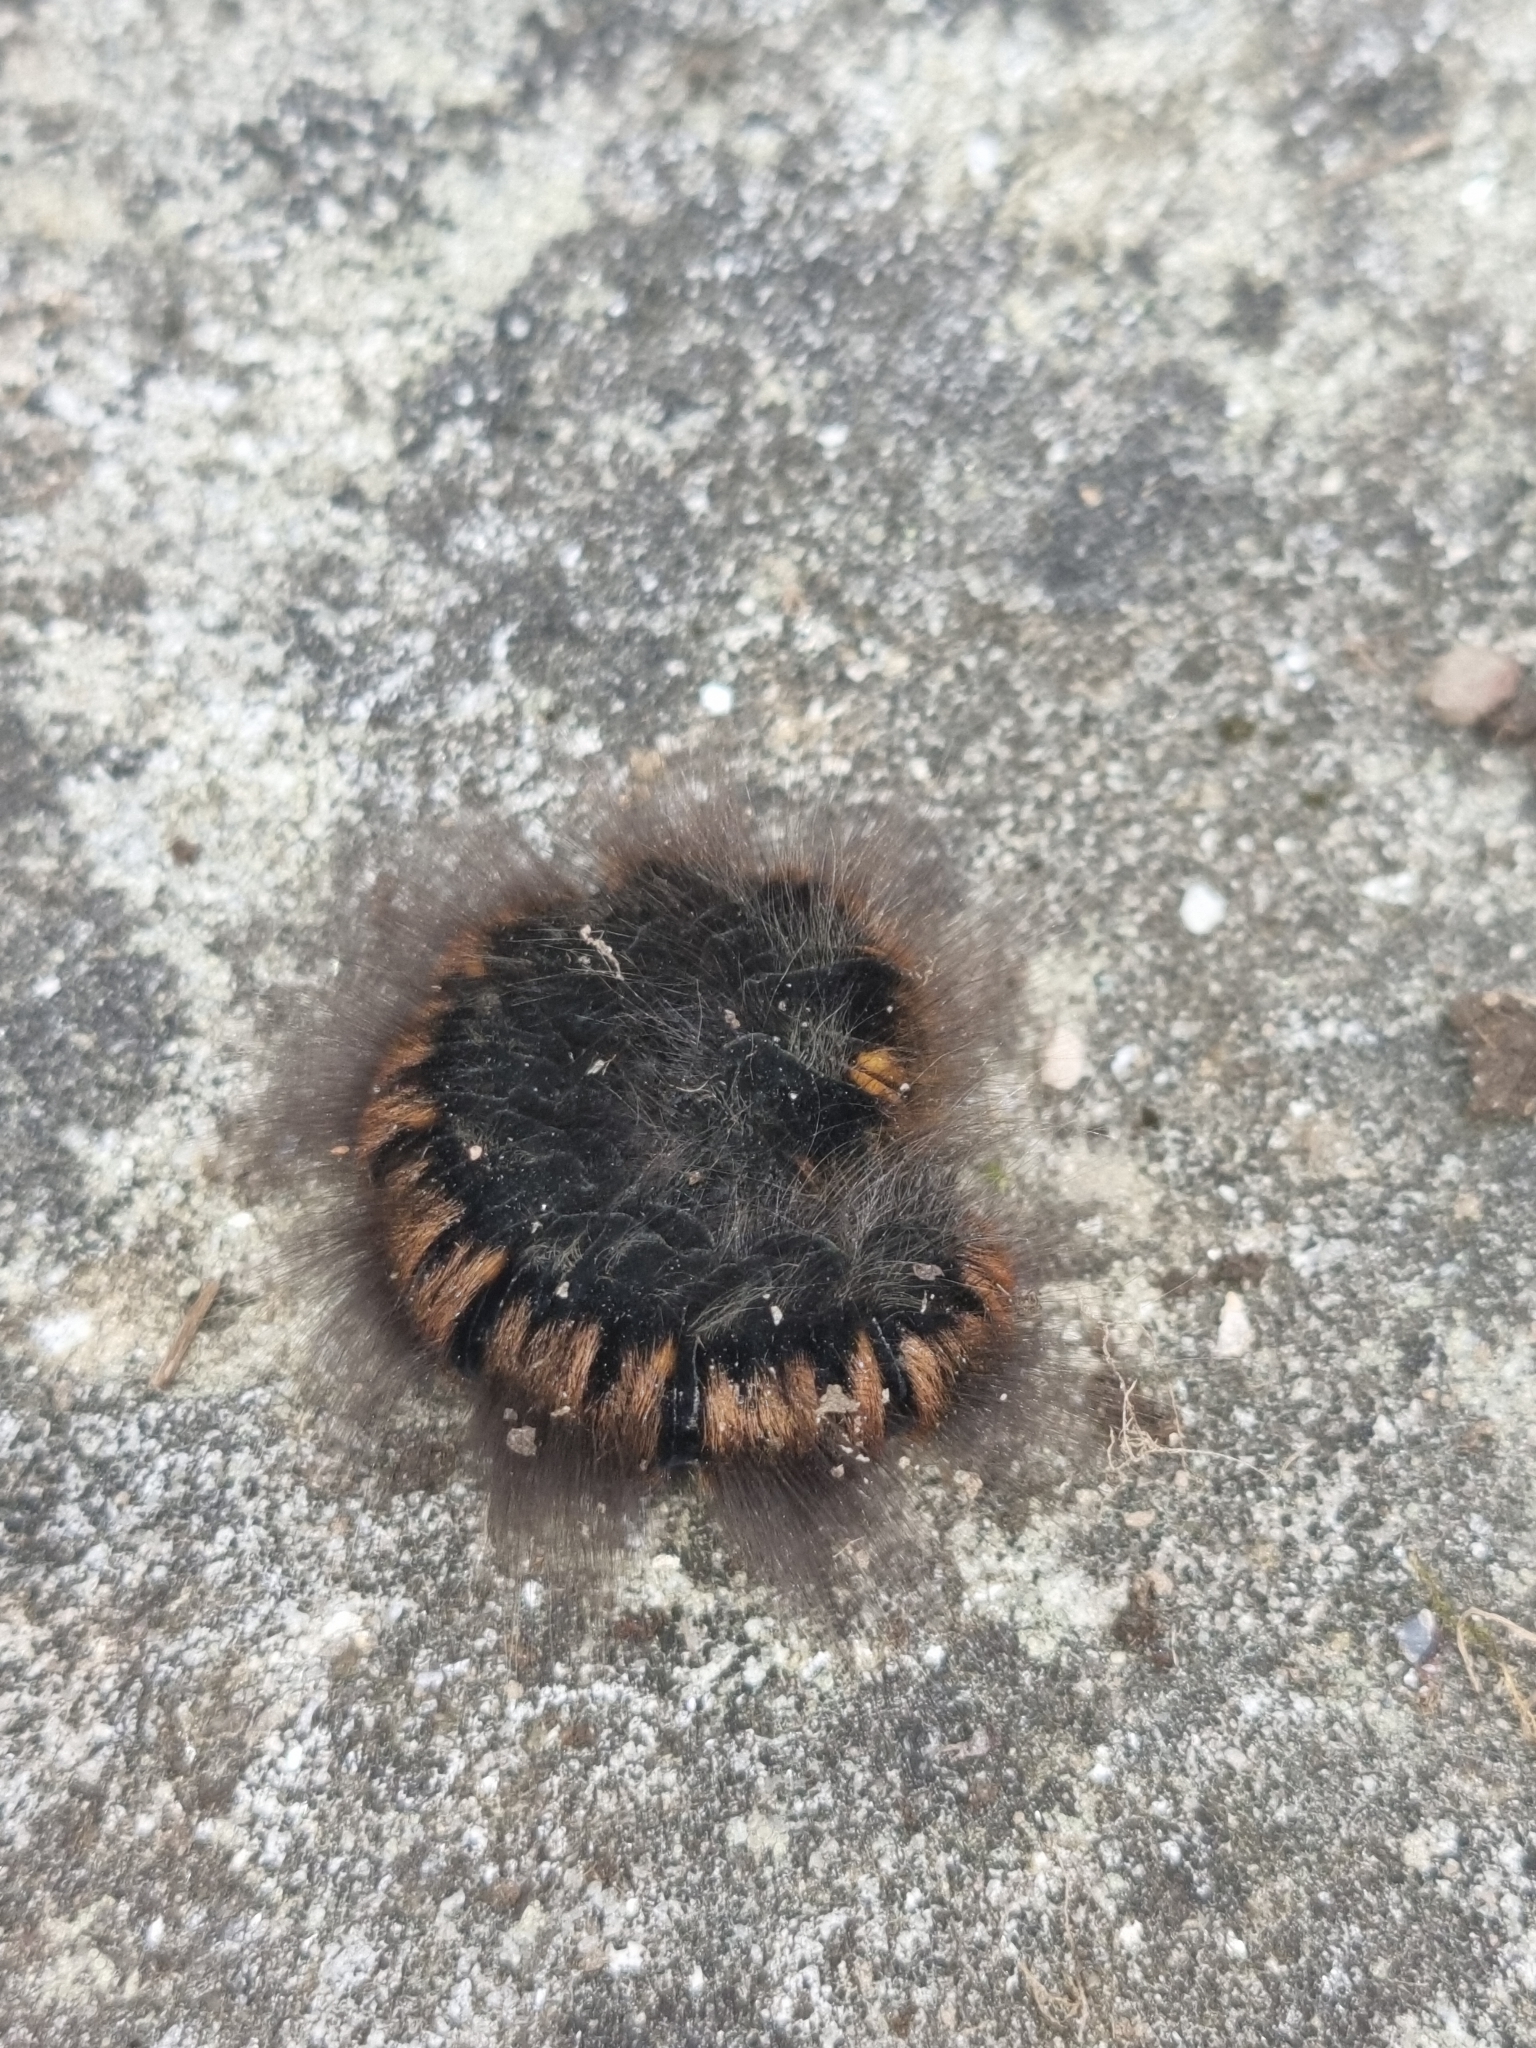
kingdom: Animalia
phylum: Arthropoda
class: Insecta
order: Lepidoptera
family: Lasiocampidae
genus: Macrothylacia
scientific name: Macrothylacia rubi
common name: Fox moth
